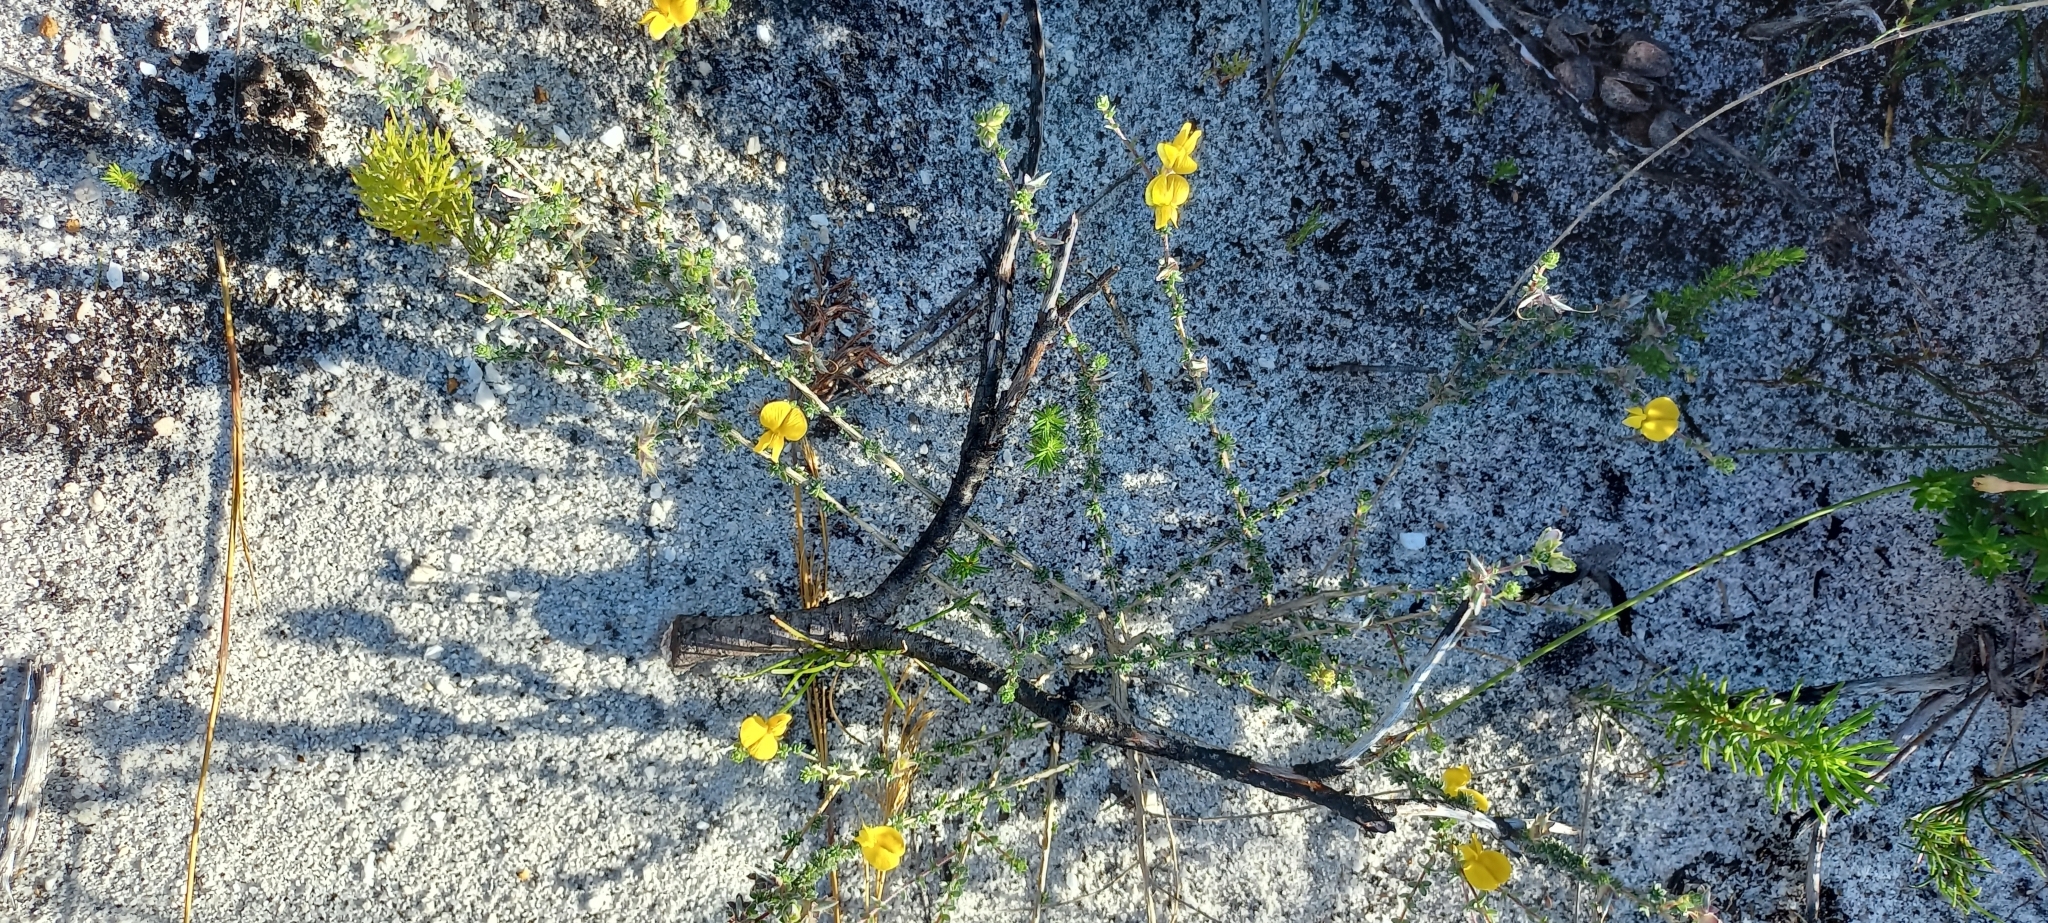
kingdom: Plantae
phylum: Tracheophyta
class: Magnoliopsida
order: Fabales
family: Fabaceae
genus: Aspalathus
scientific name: Aspalathus intervallaris
